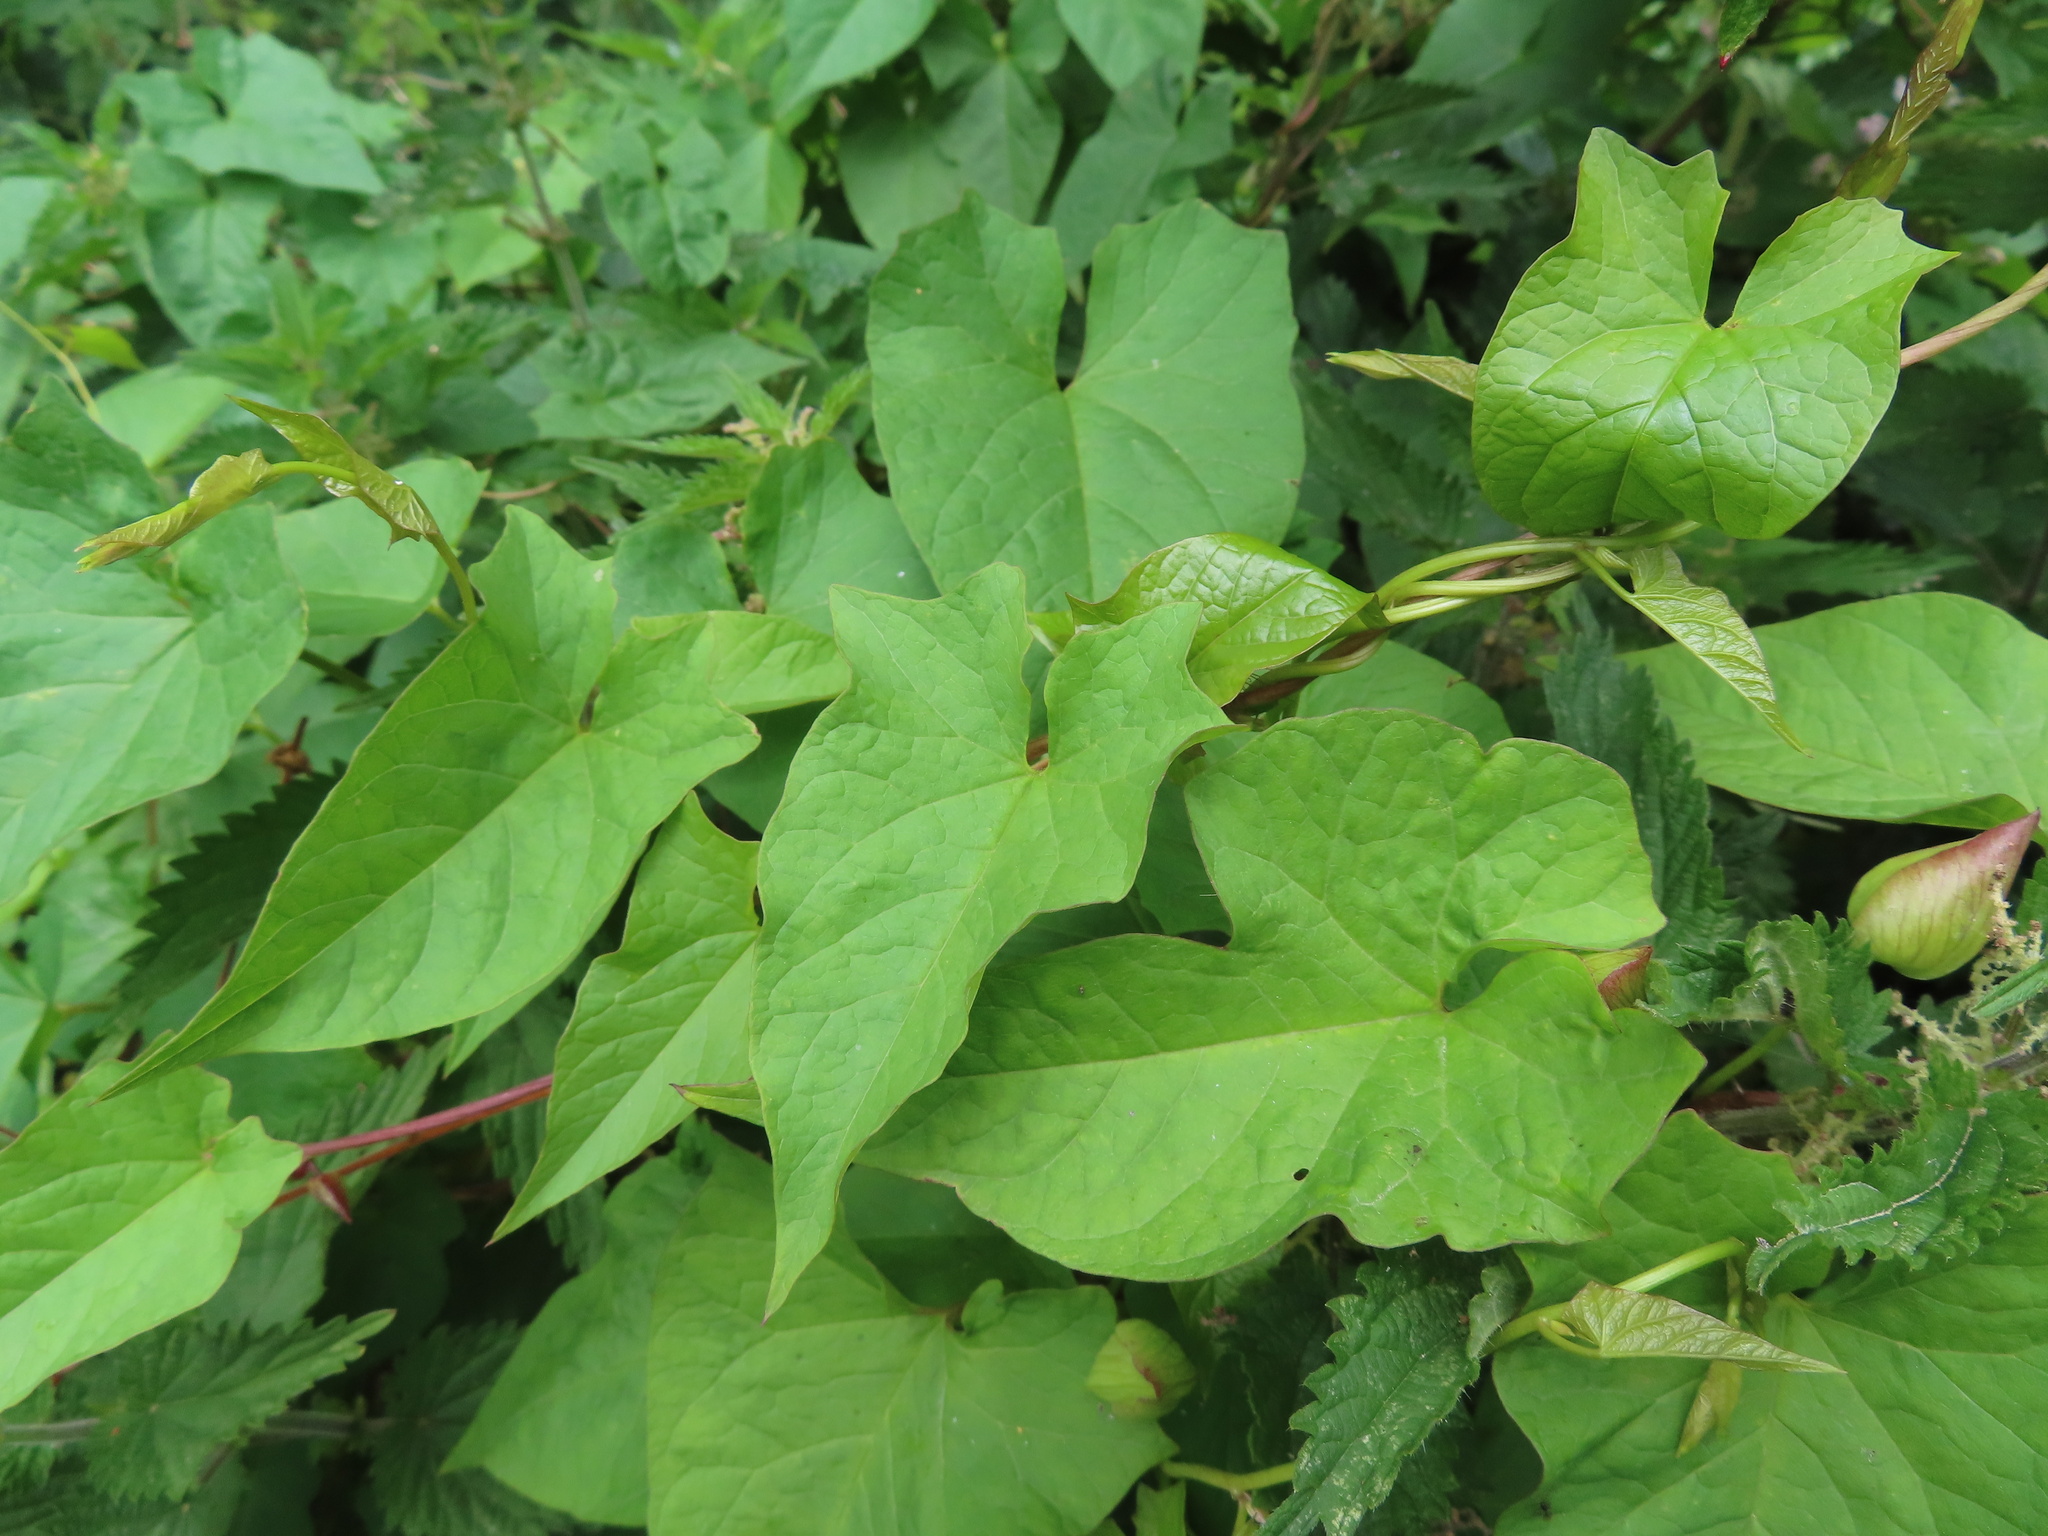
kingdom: Plantae
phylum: Tracheophyta
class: Magnoliopsida
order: Solanales
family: Convolvulaceae
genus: Calystegia
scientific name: Calystegia silvatica
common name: Large bindweed
